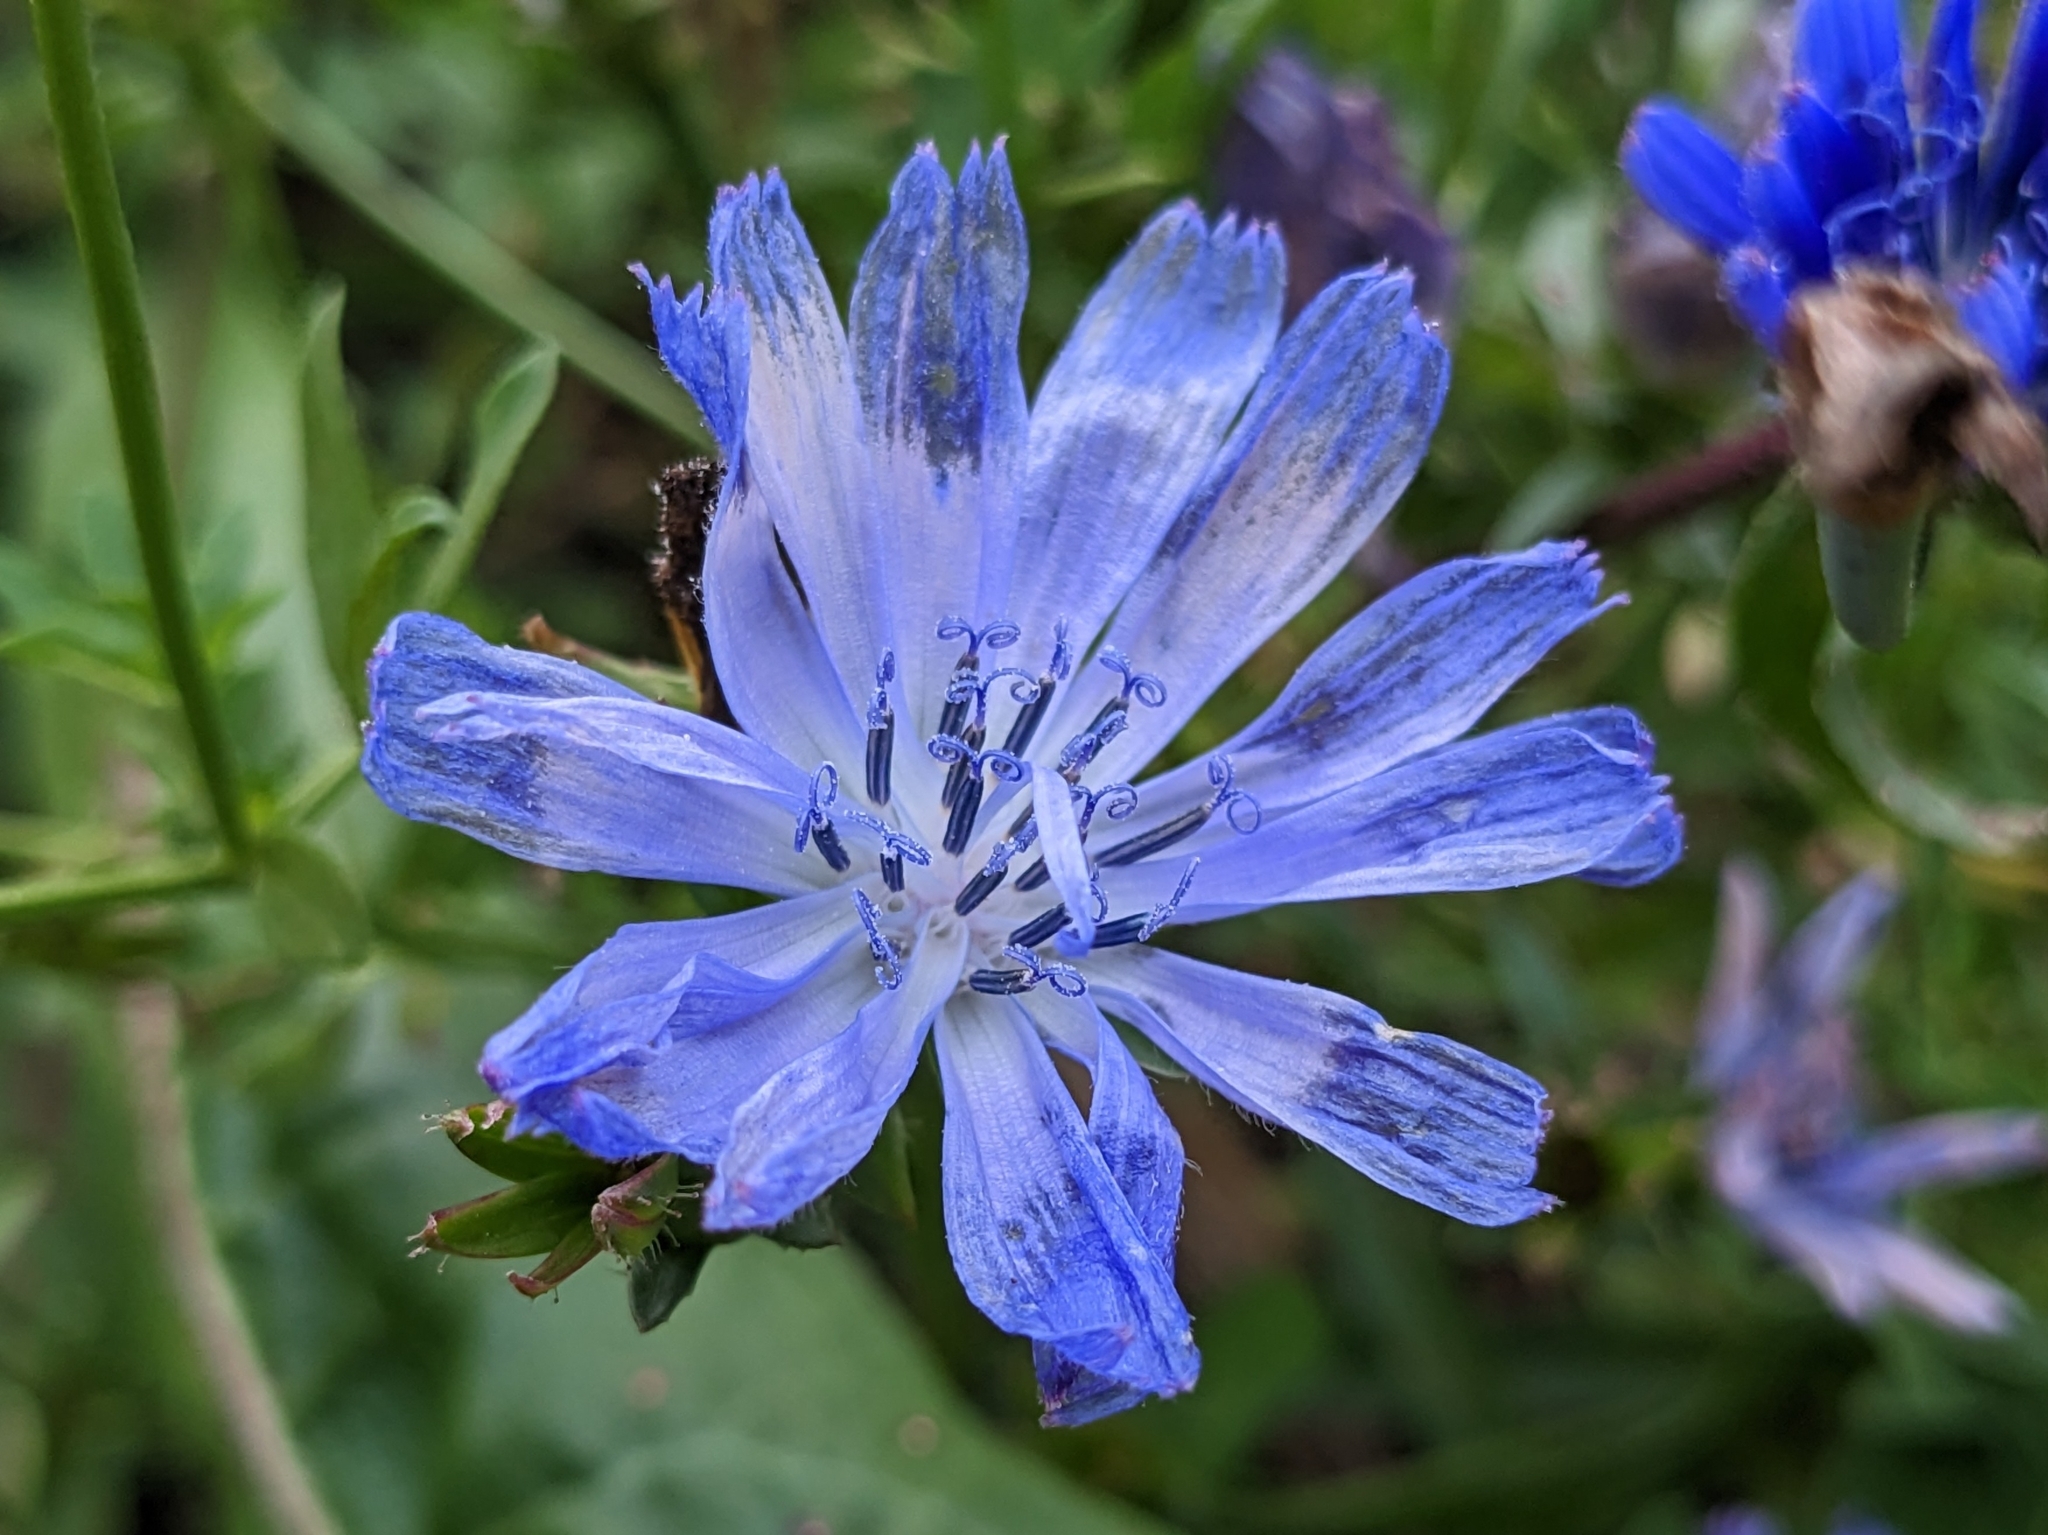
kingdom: Plantae
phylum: Tracheophyta
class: Magnoliopsida
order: Asterales
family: Asteraceae
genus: Cichorium
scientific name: Cichorium intybus
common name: Chicory
